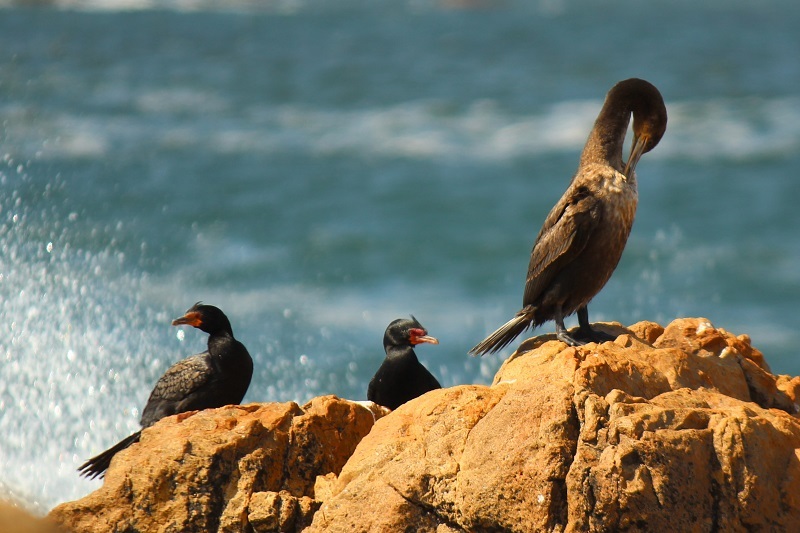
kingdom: Animalia
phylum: Chordata
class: Aves
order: Suliformes
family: Phalacrocoracidae
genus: Microcarbo
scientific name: Microcarbo coronatus
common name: Crowned cormorant
